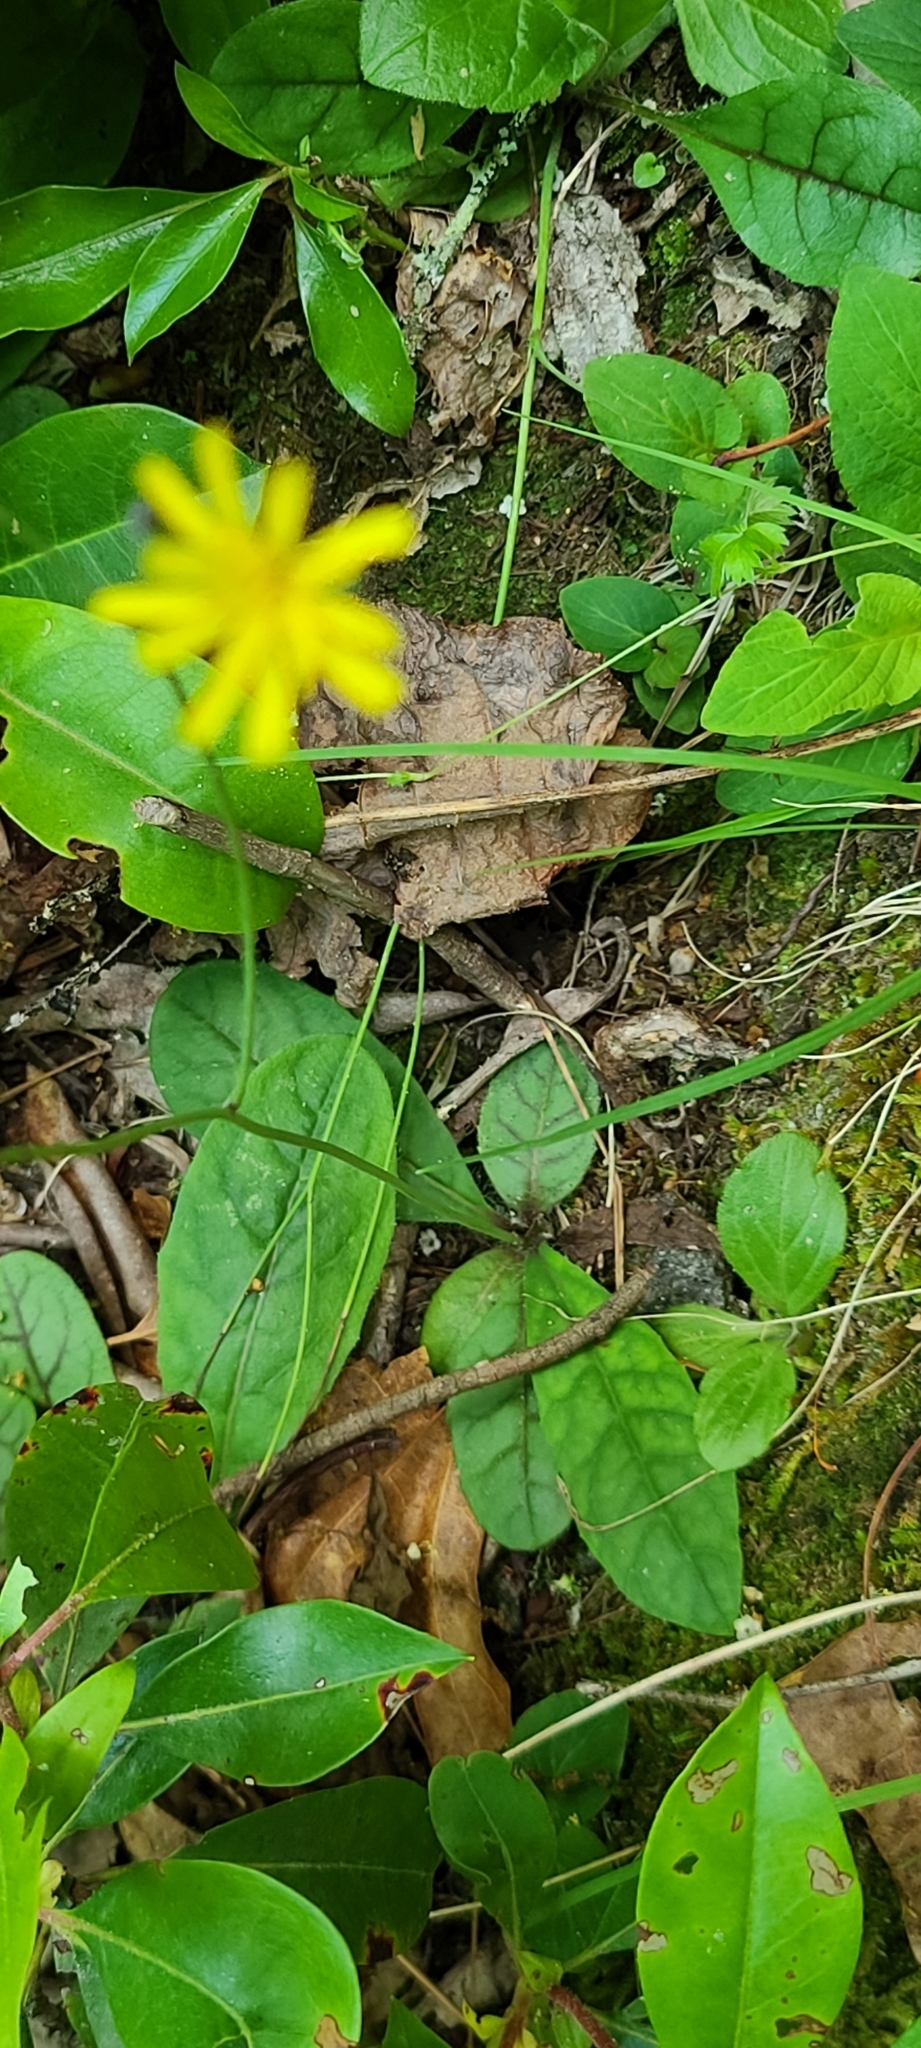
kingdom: Plantae
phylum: Tracheophyta
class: Magnoliopsida
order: Asterales
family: Asteraceae
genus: Hieracium
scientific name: Hieracium venosum
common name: Rattlesnake hawkweed
